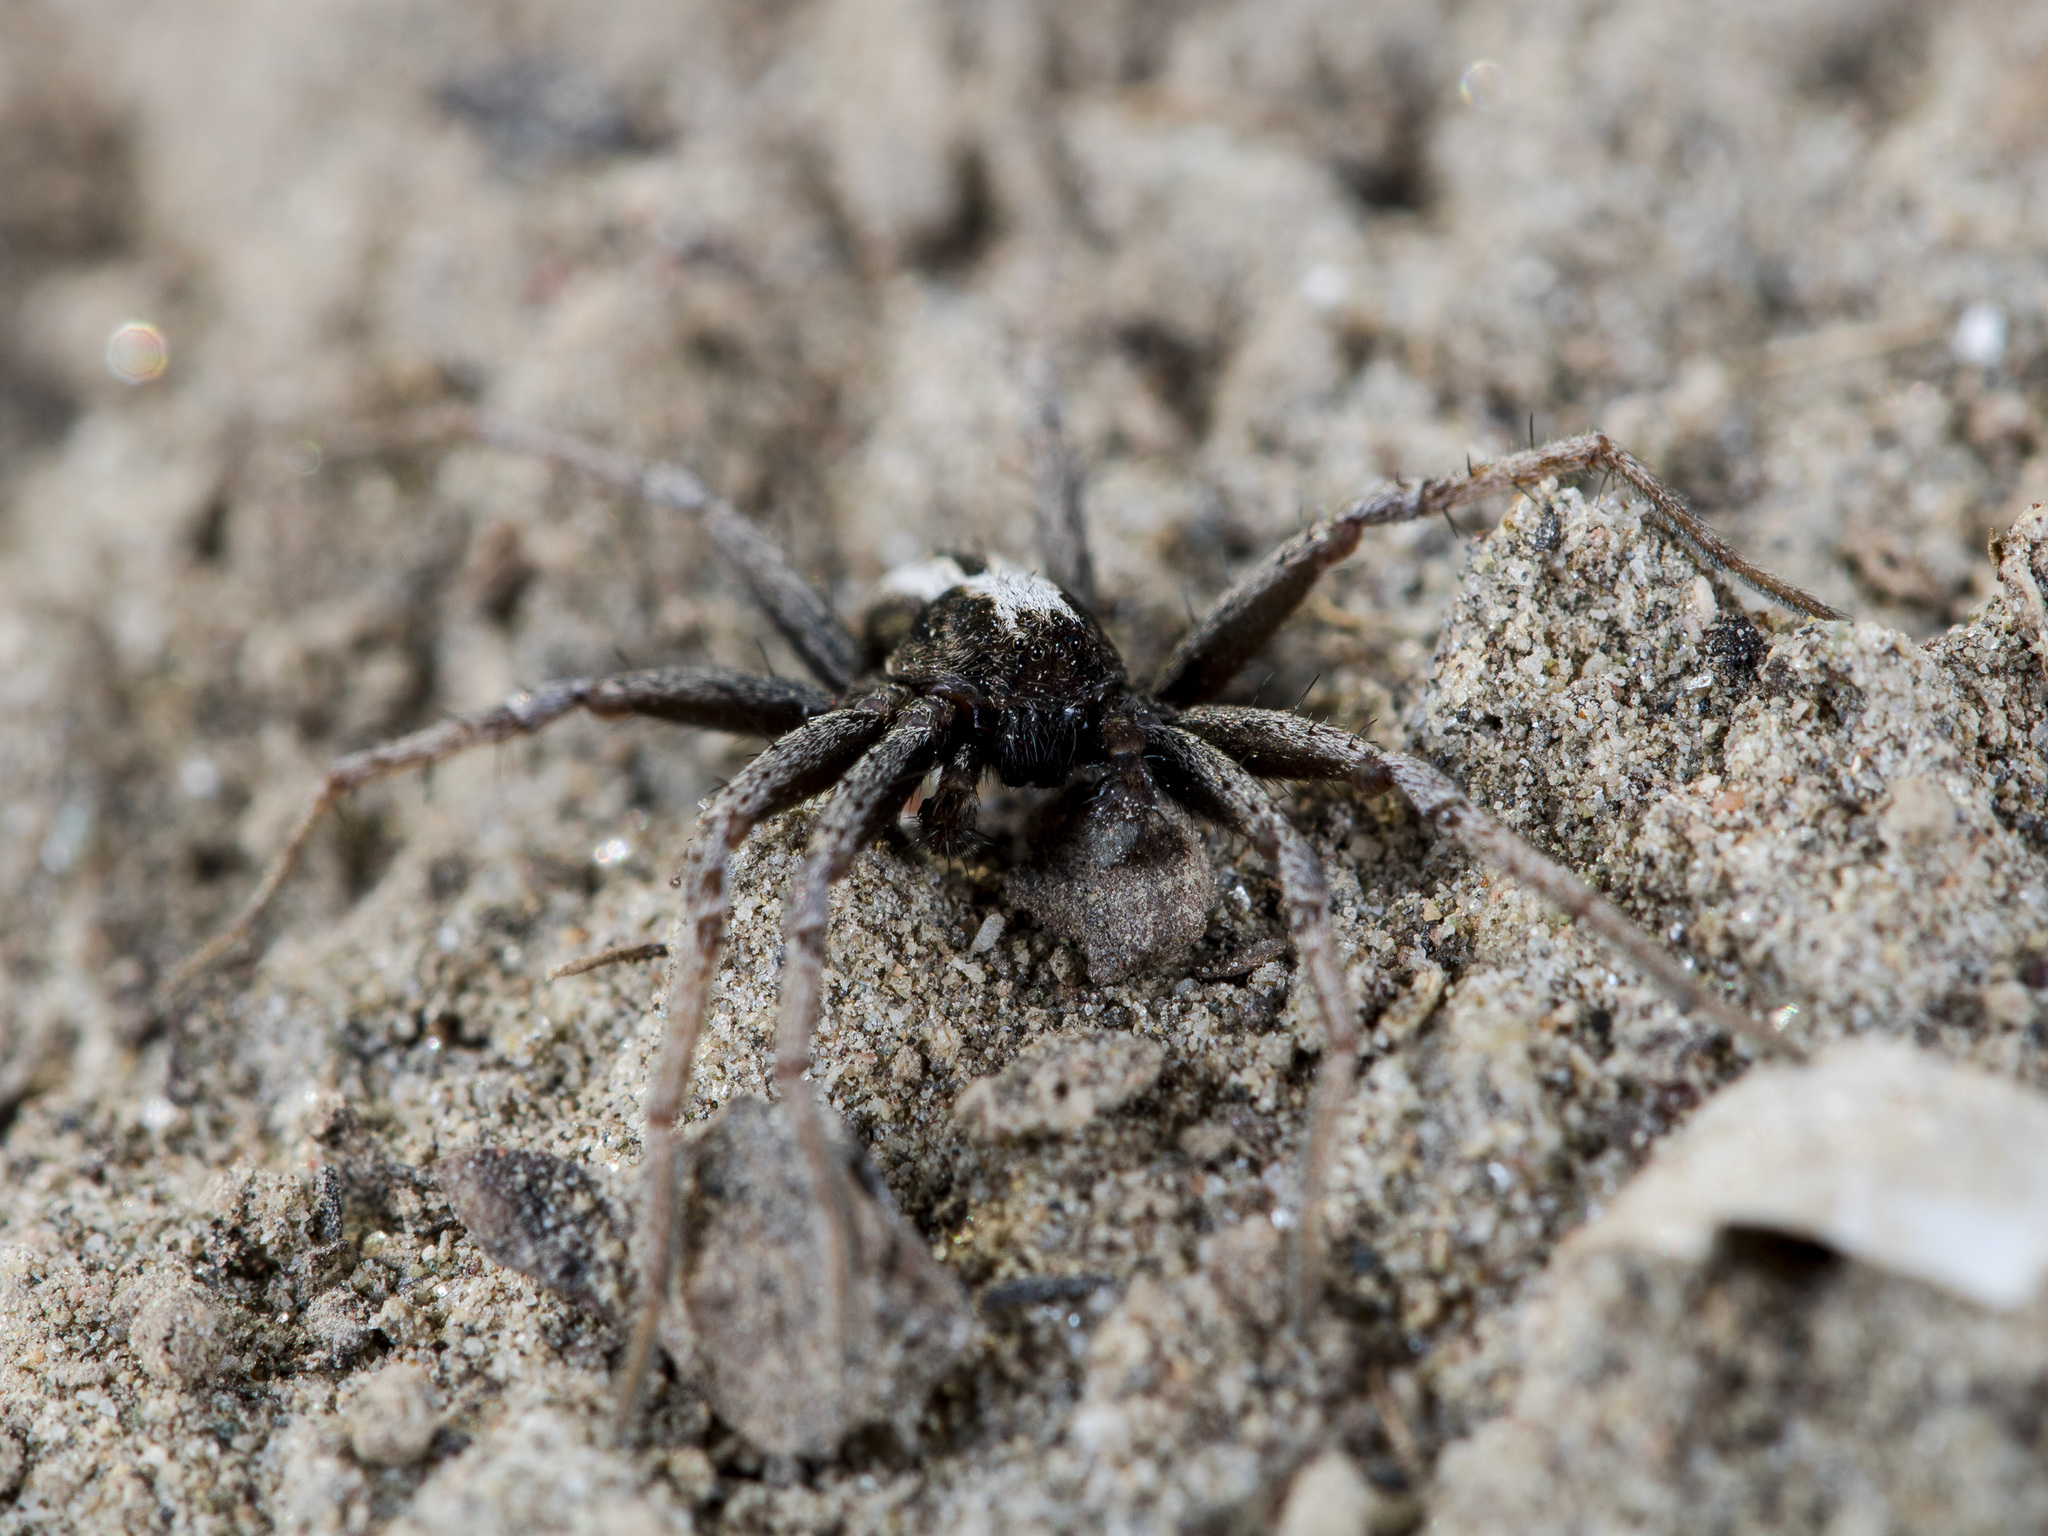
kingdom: Animalia
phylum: Arthropoda
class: Arachnida
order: Araneae
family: Philodromidae
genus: Thanatus
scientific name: Thanatus imbecillus
